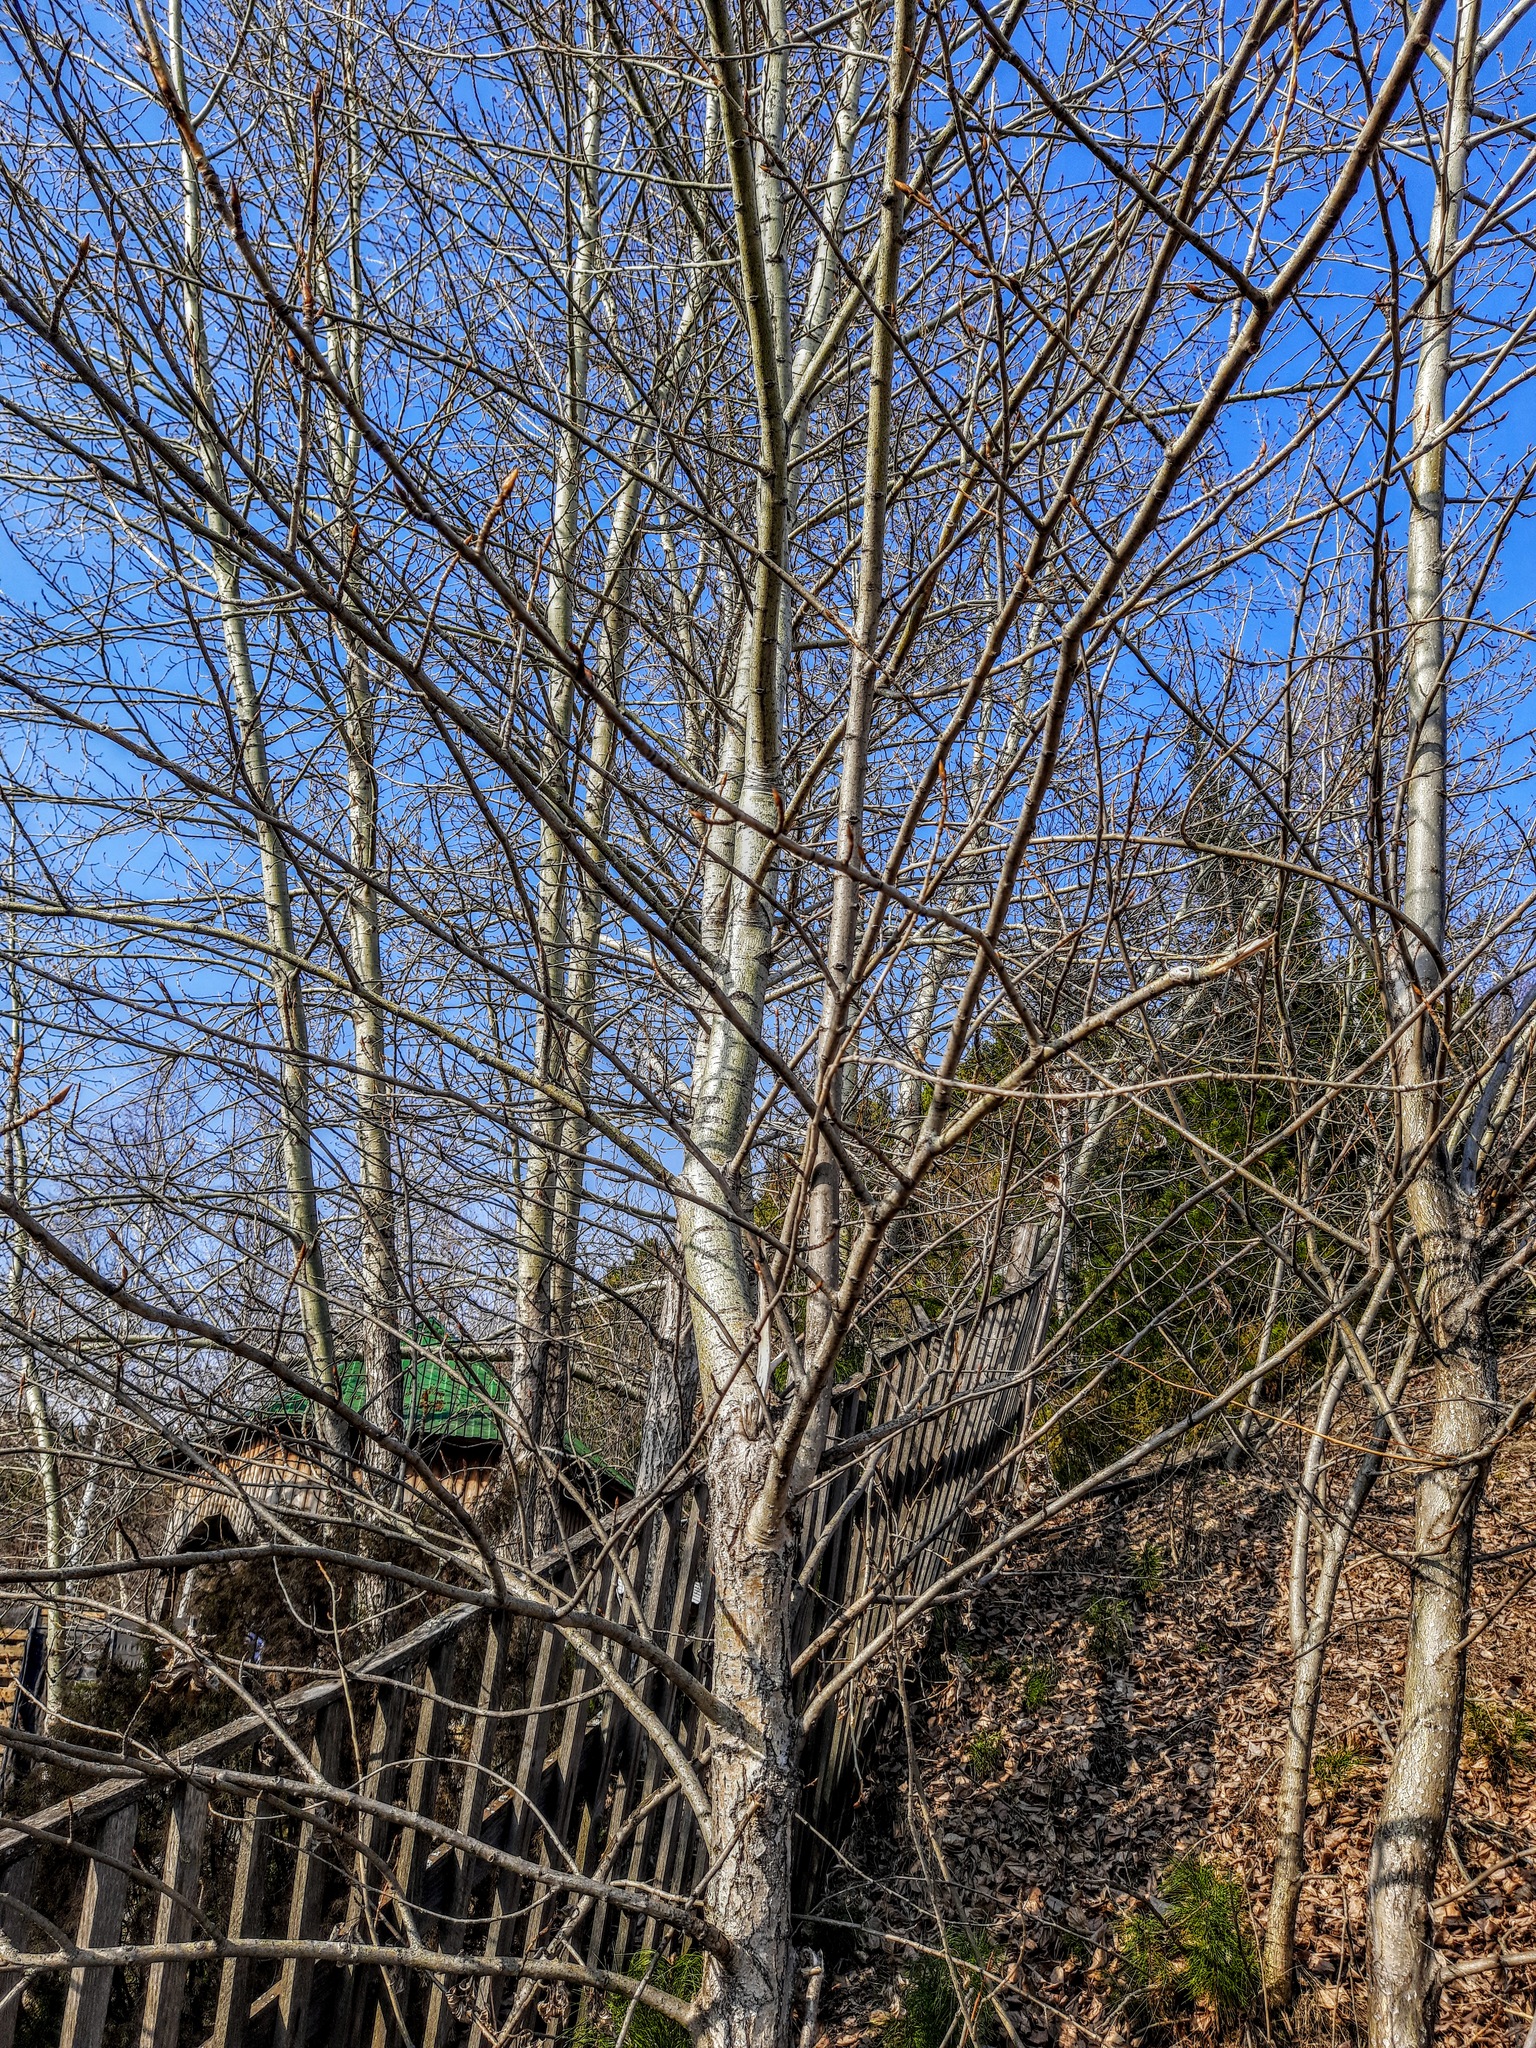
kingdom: Plantae
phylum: Tracheophyta
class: Magnoliopsida
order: Malpighiales
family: Salicaceae
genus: Populus
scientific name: Populus tremula
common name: European aspen
